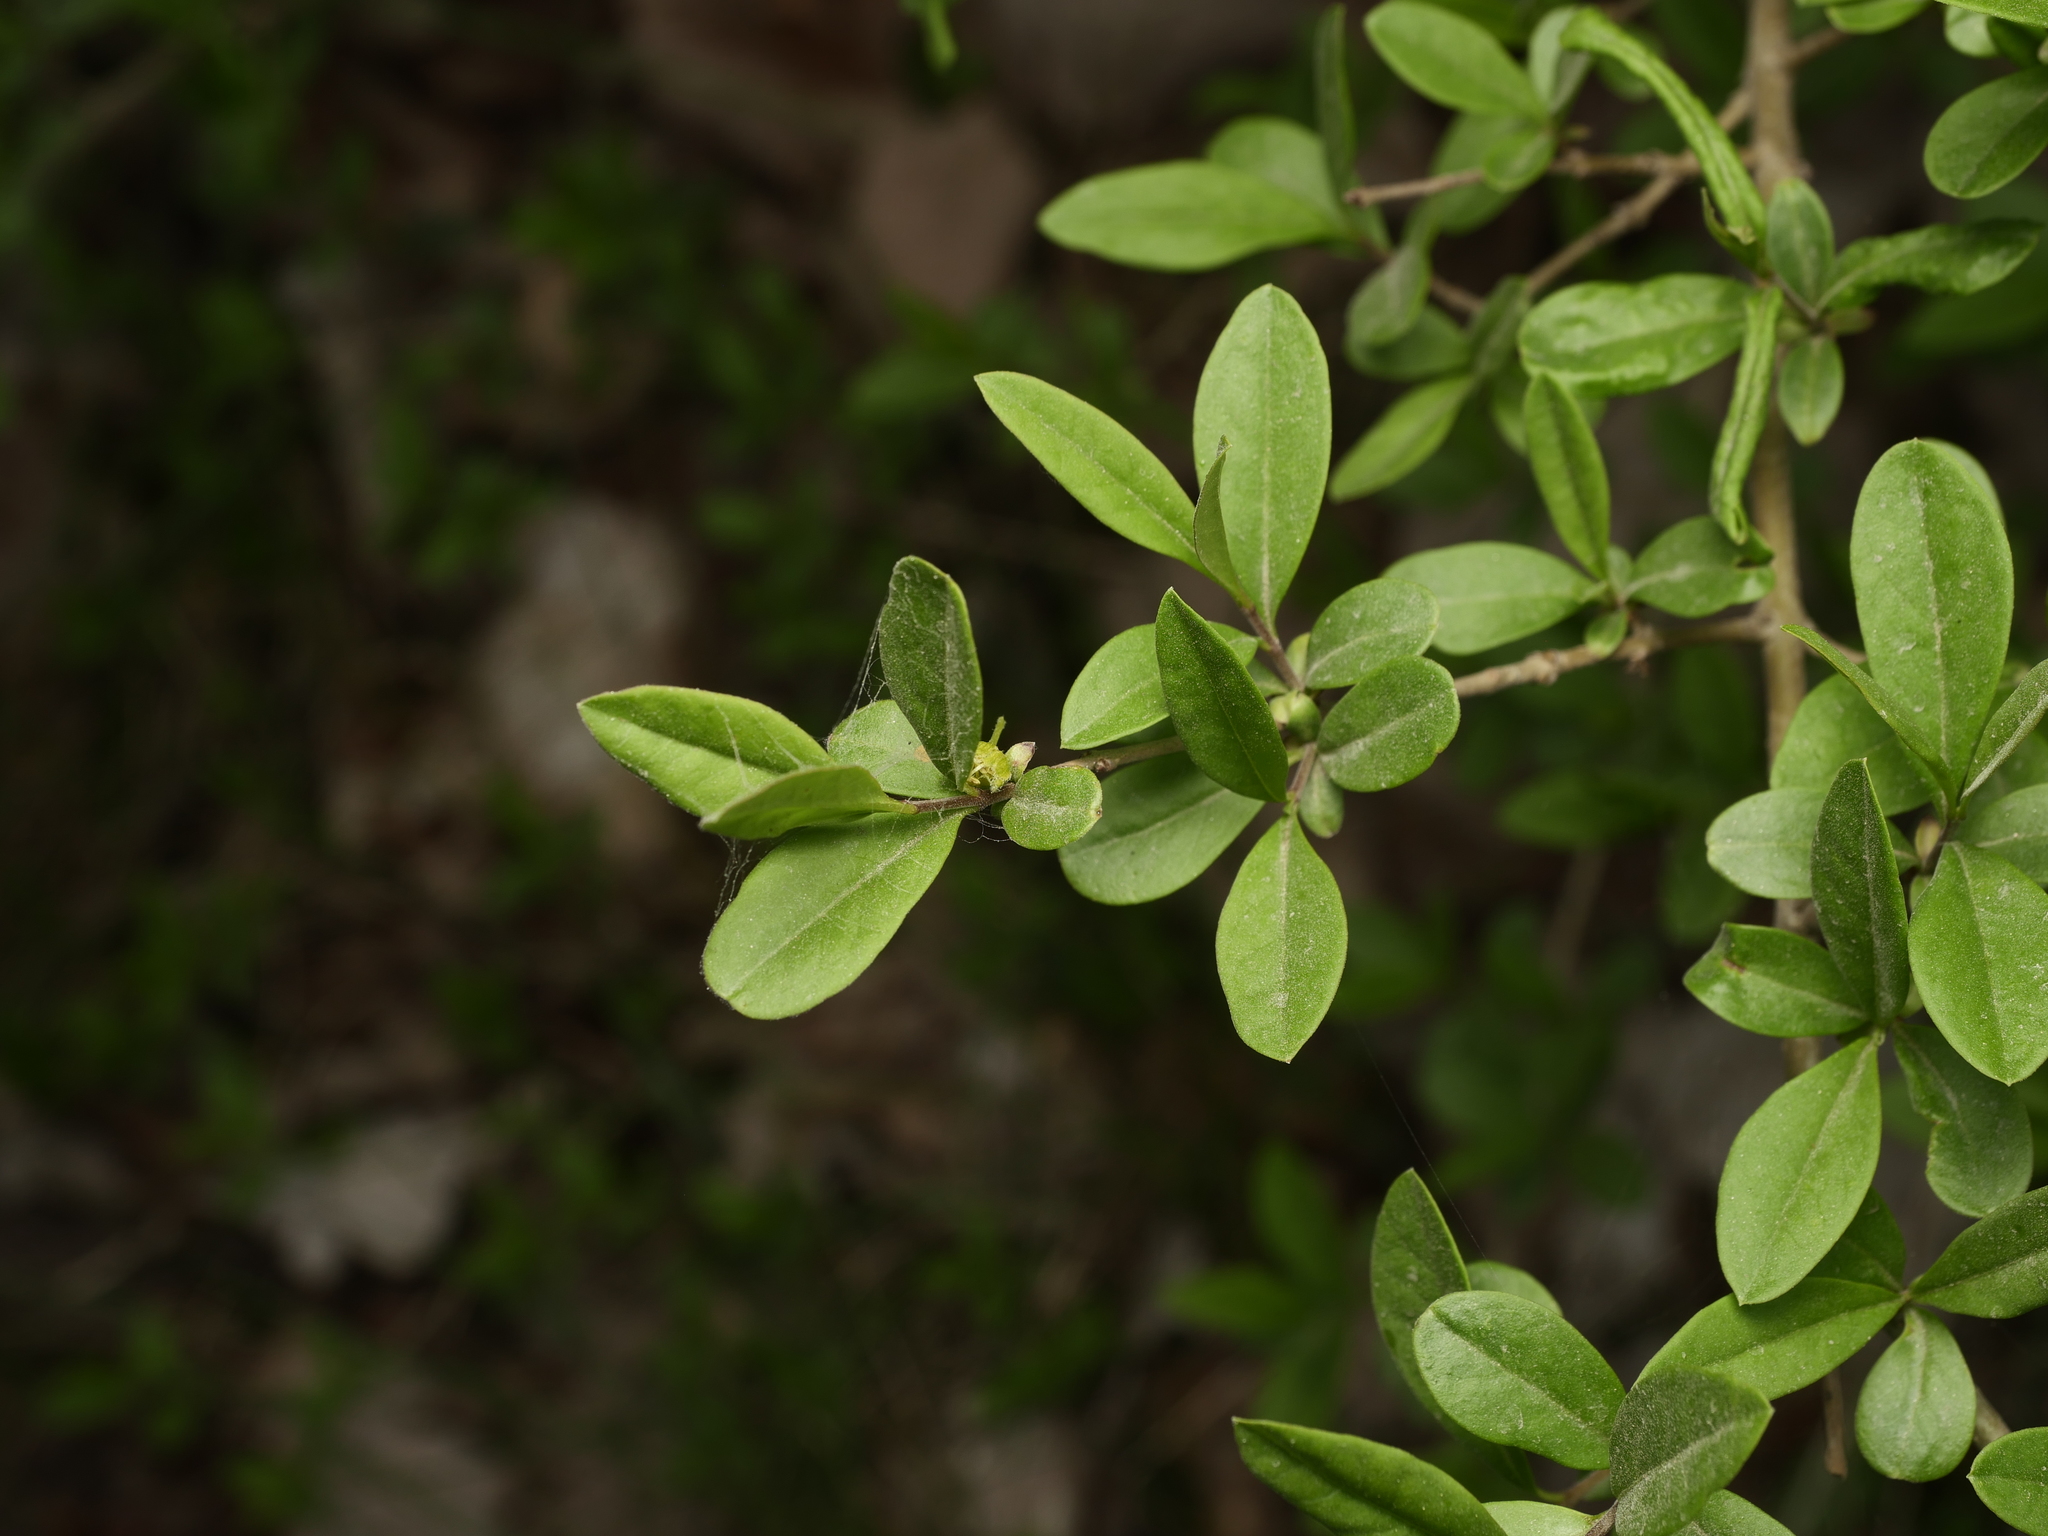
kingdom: Plantae
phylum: Tracheophyta
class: Magnoliopsida
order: Lamiales
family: Oleaceae
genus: Ligustrum
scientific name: Ligustrum vulgare
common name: Wild privet
